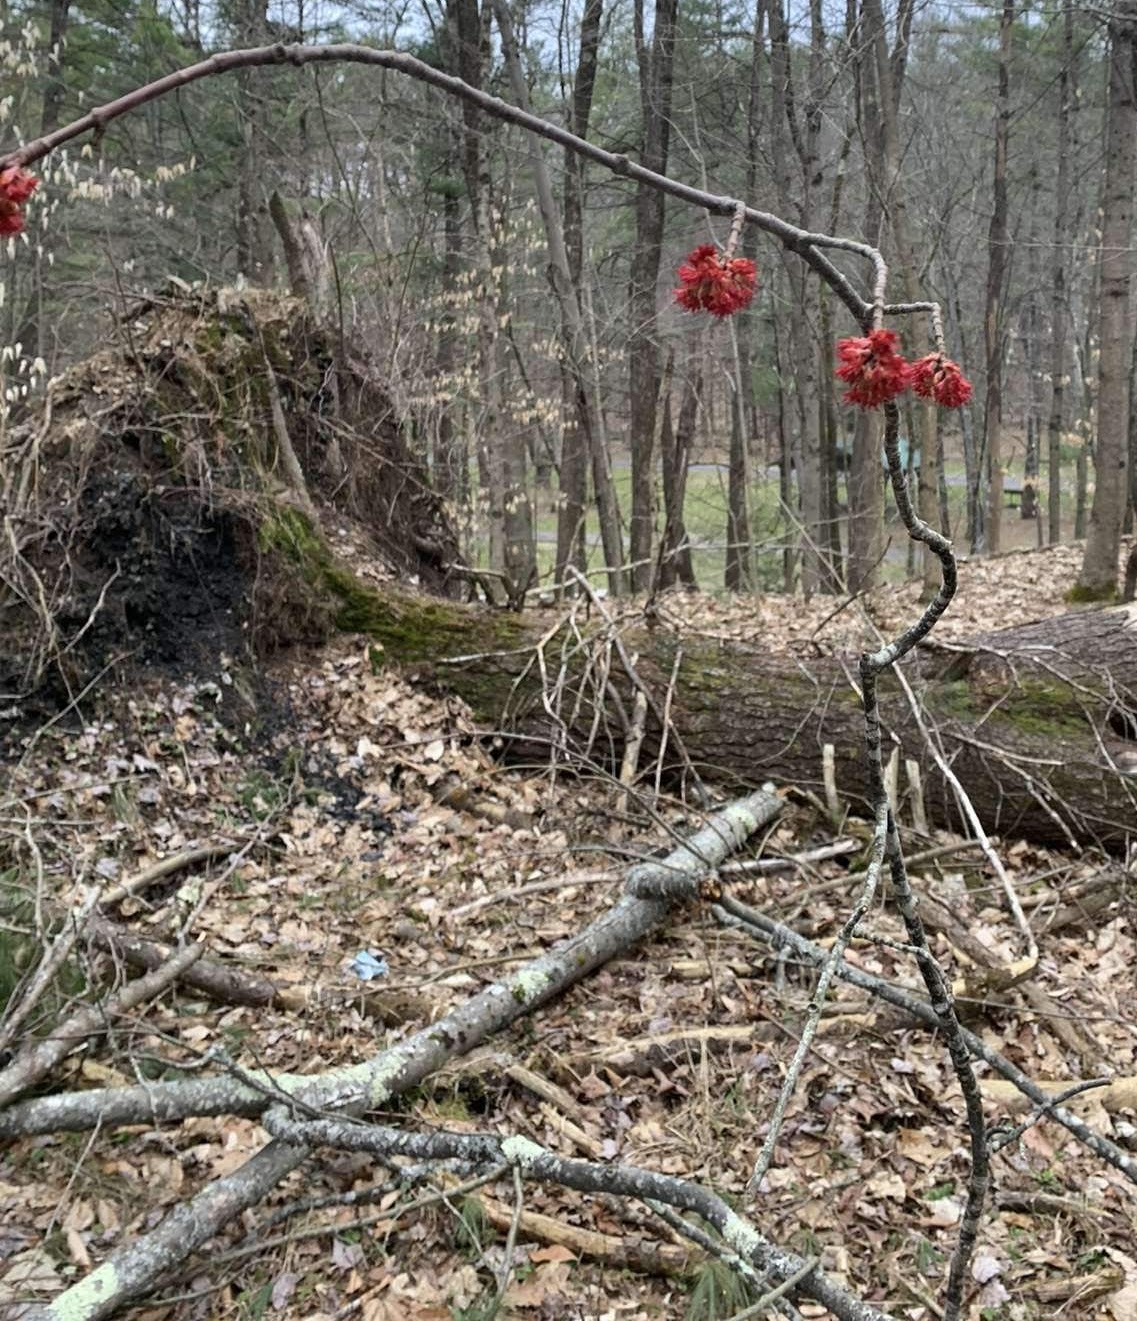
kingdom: Plantae
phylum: Tracheophyta
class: Magnoliopsida
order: Sapindales
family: Sapindaceae
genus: Acer
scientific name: Acer rubrum
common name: Red maple
